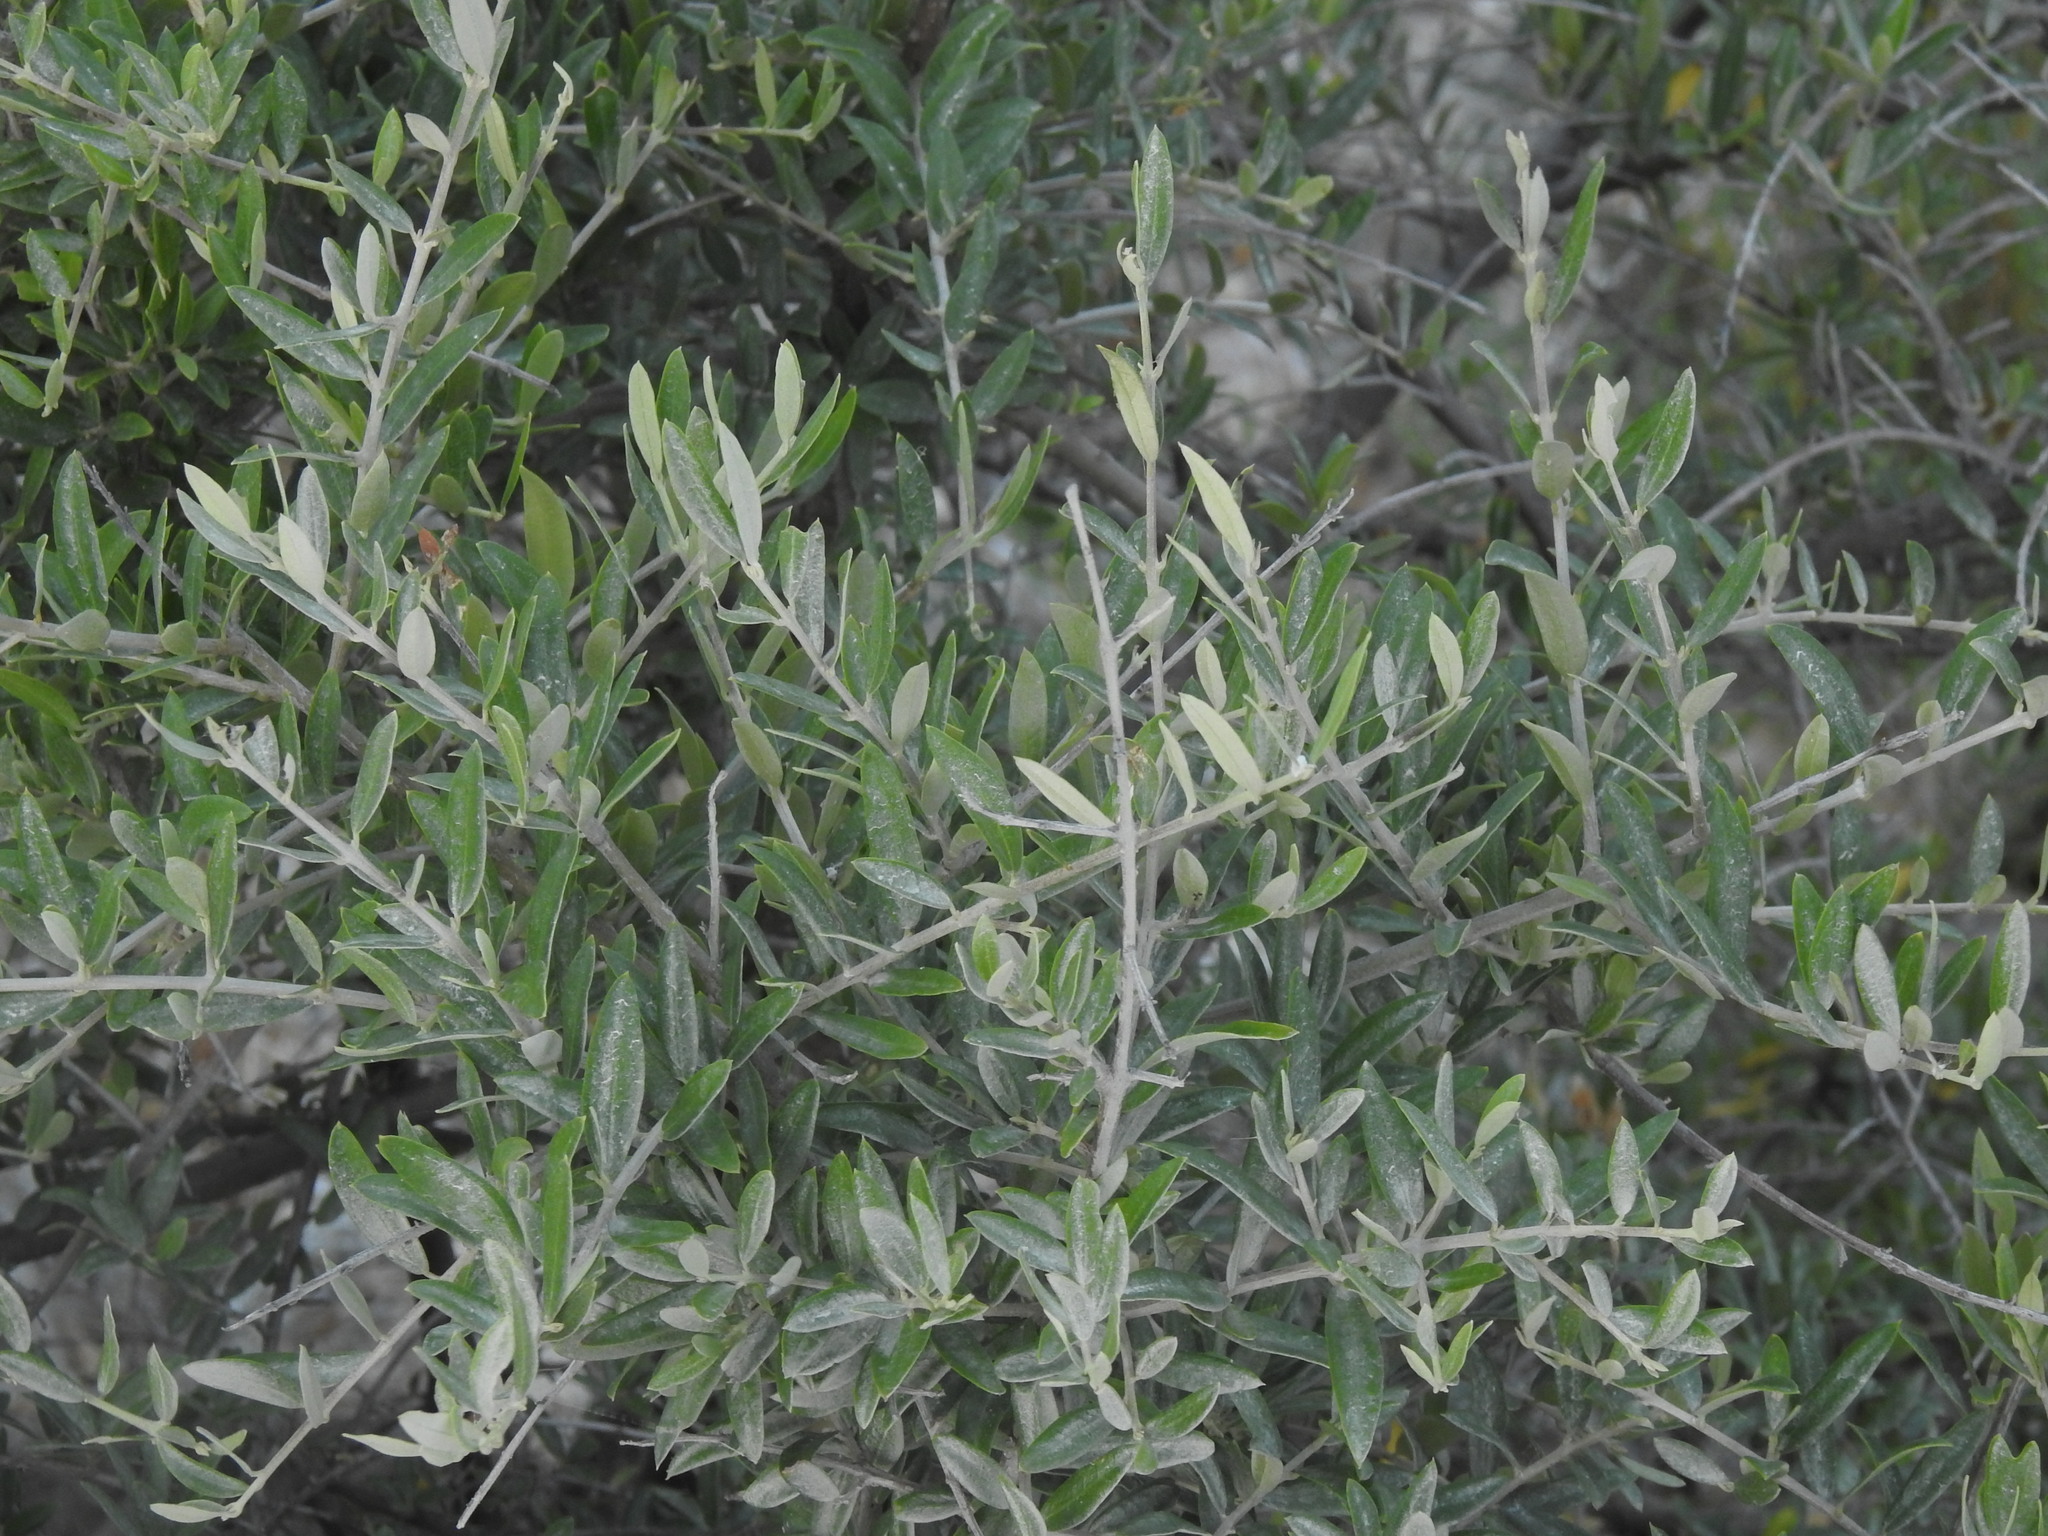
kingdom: Plantae
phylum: Tracheophyta
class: Magnoliopsida
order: Lamiales
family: Oleaceae
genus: Olea
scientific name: Olea europaea
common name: Olive
